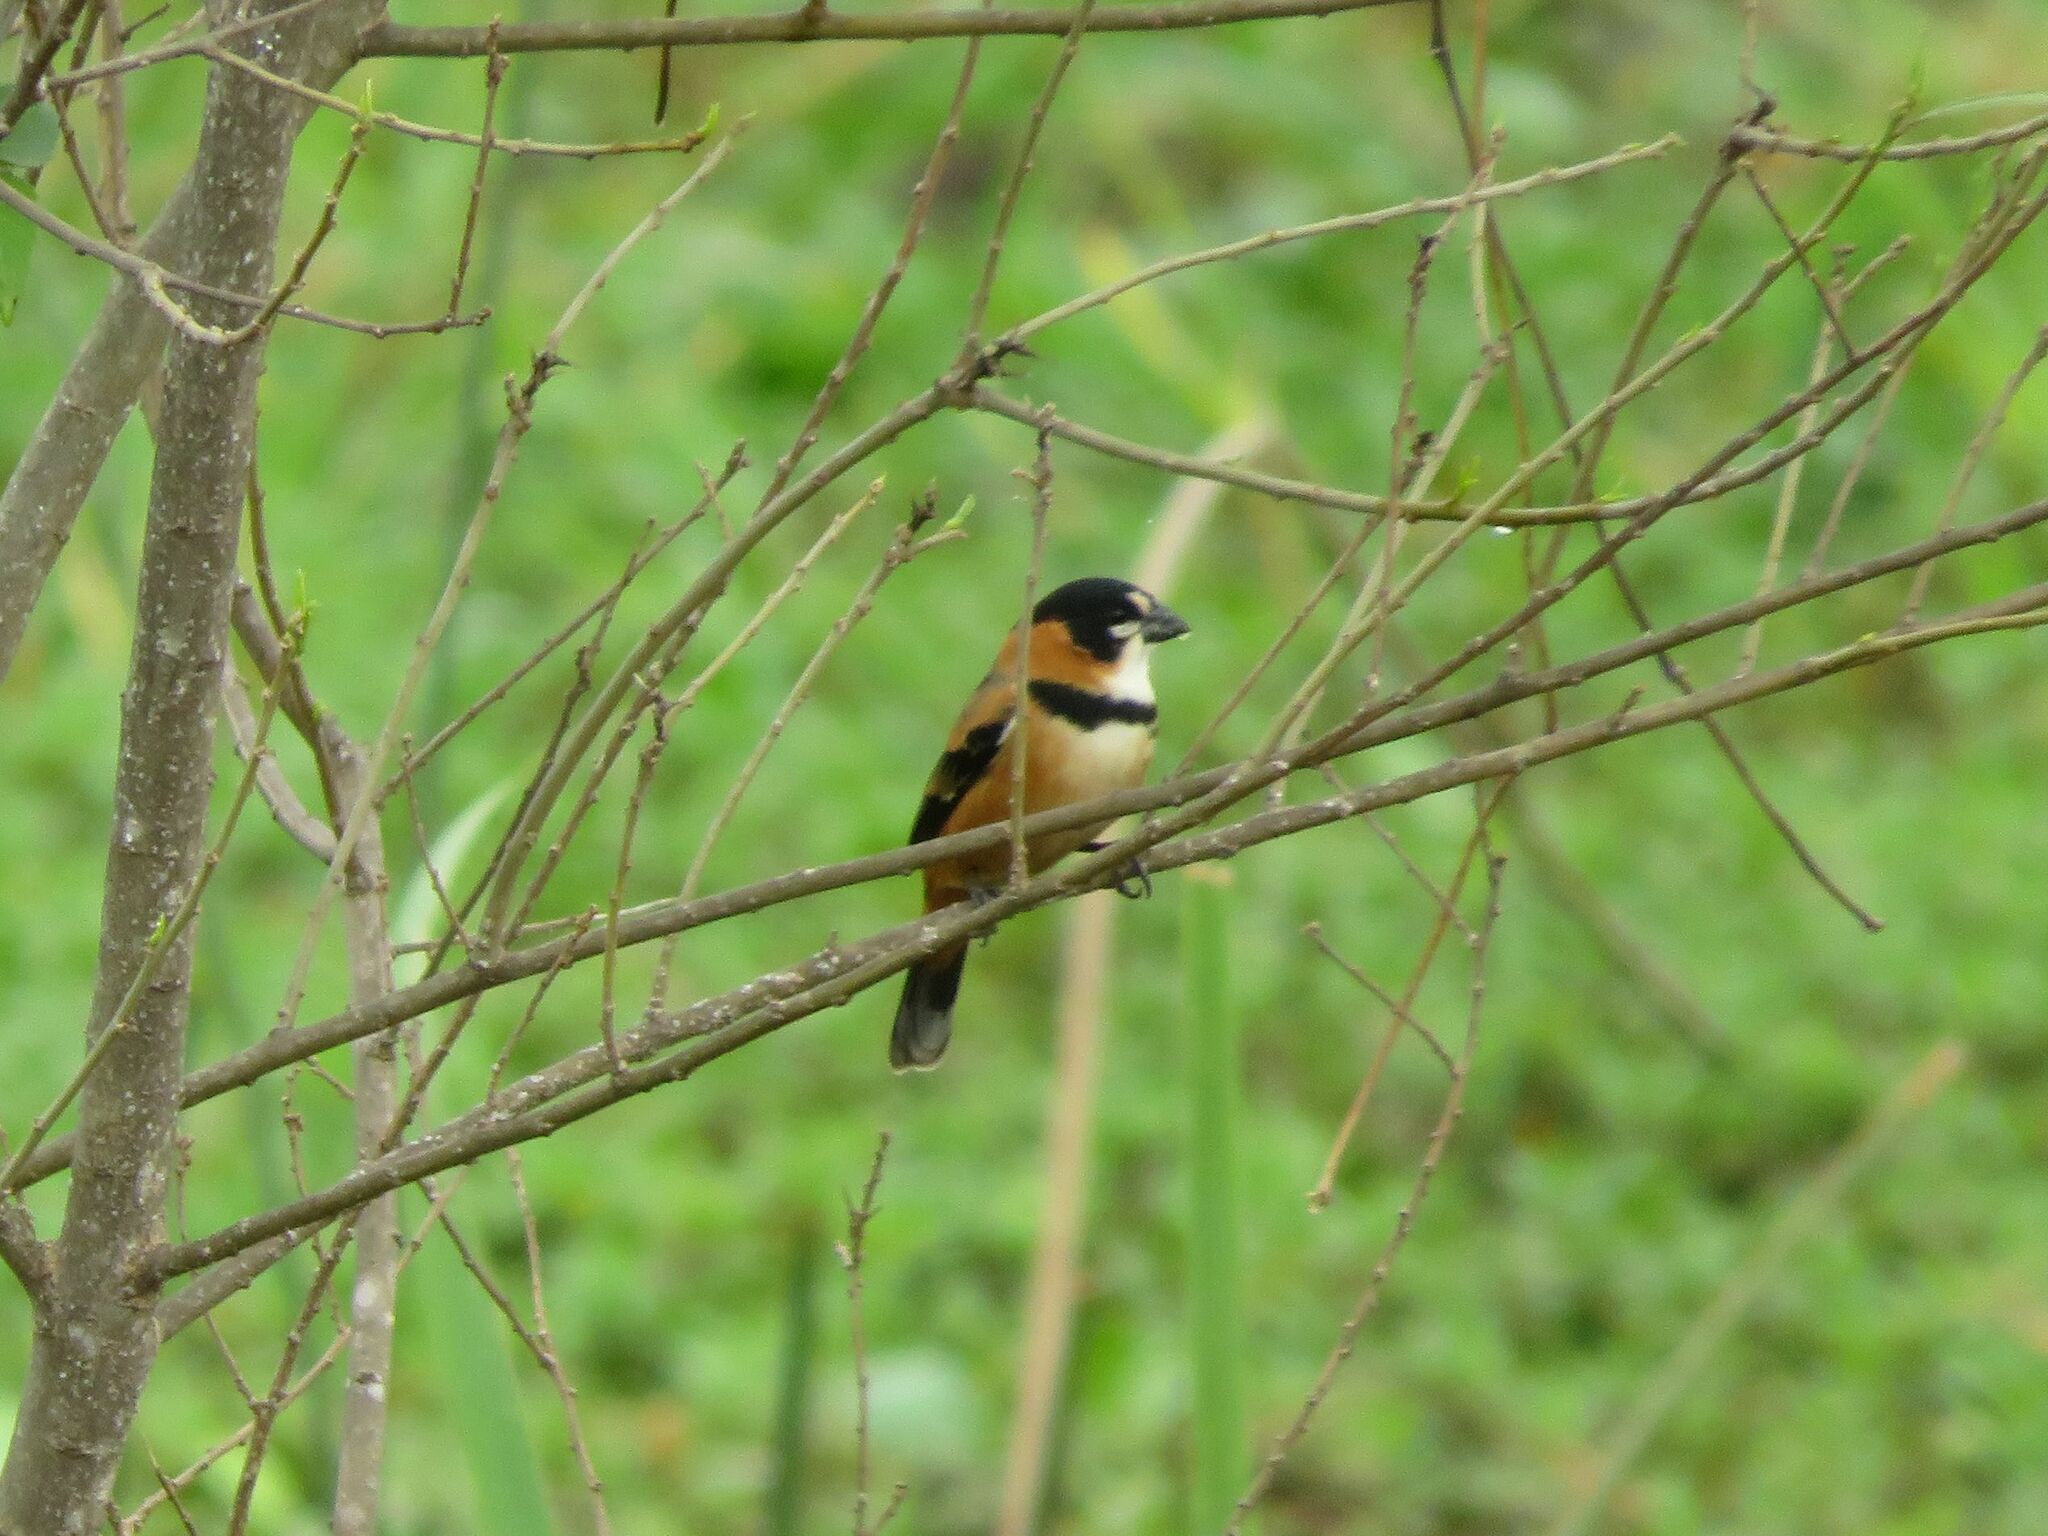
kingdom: Animalia
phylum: Chordata
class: Aves
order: Passeriformes
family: Thraupidae
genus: Sporophila
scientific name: Sporophila collaris
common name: Rusty-collared seedeater
